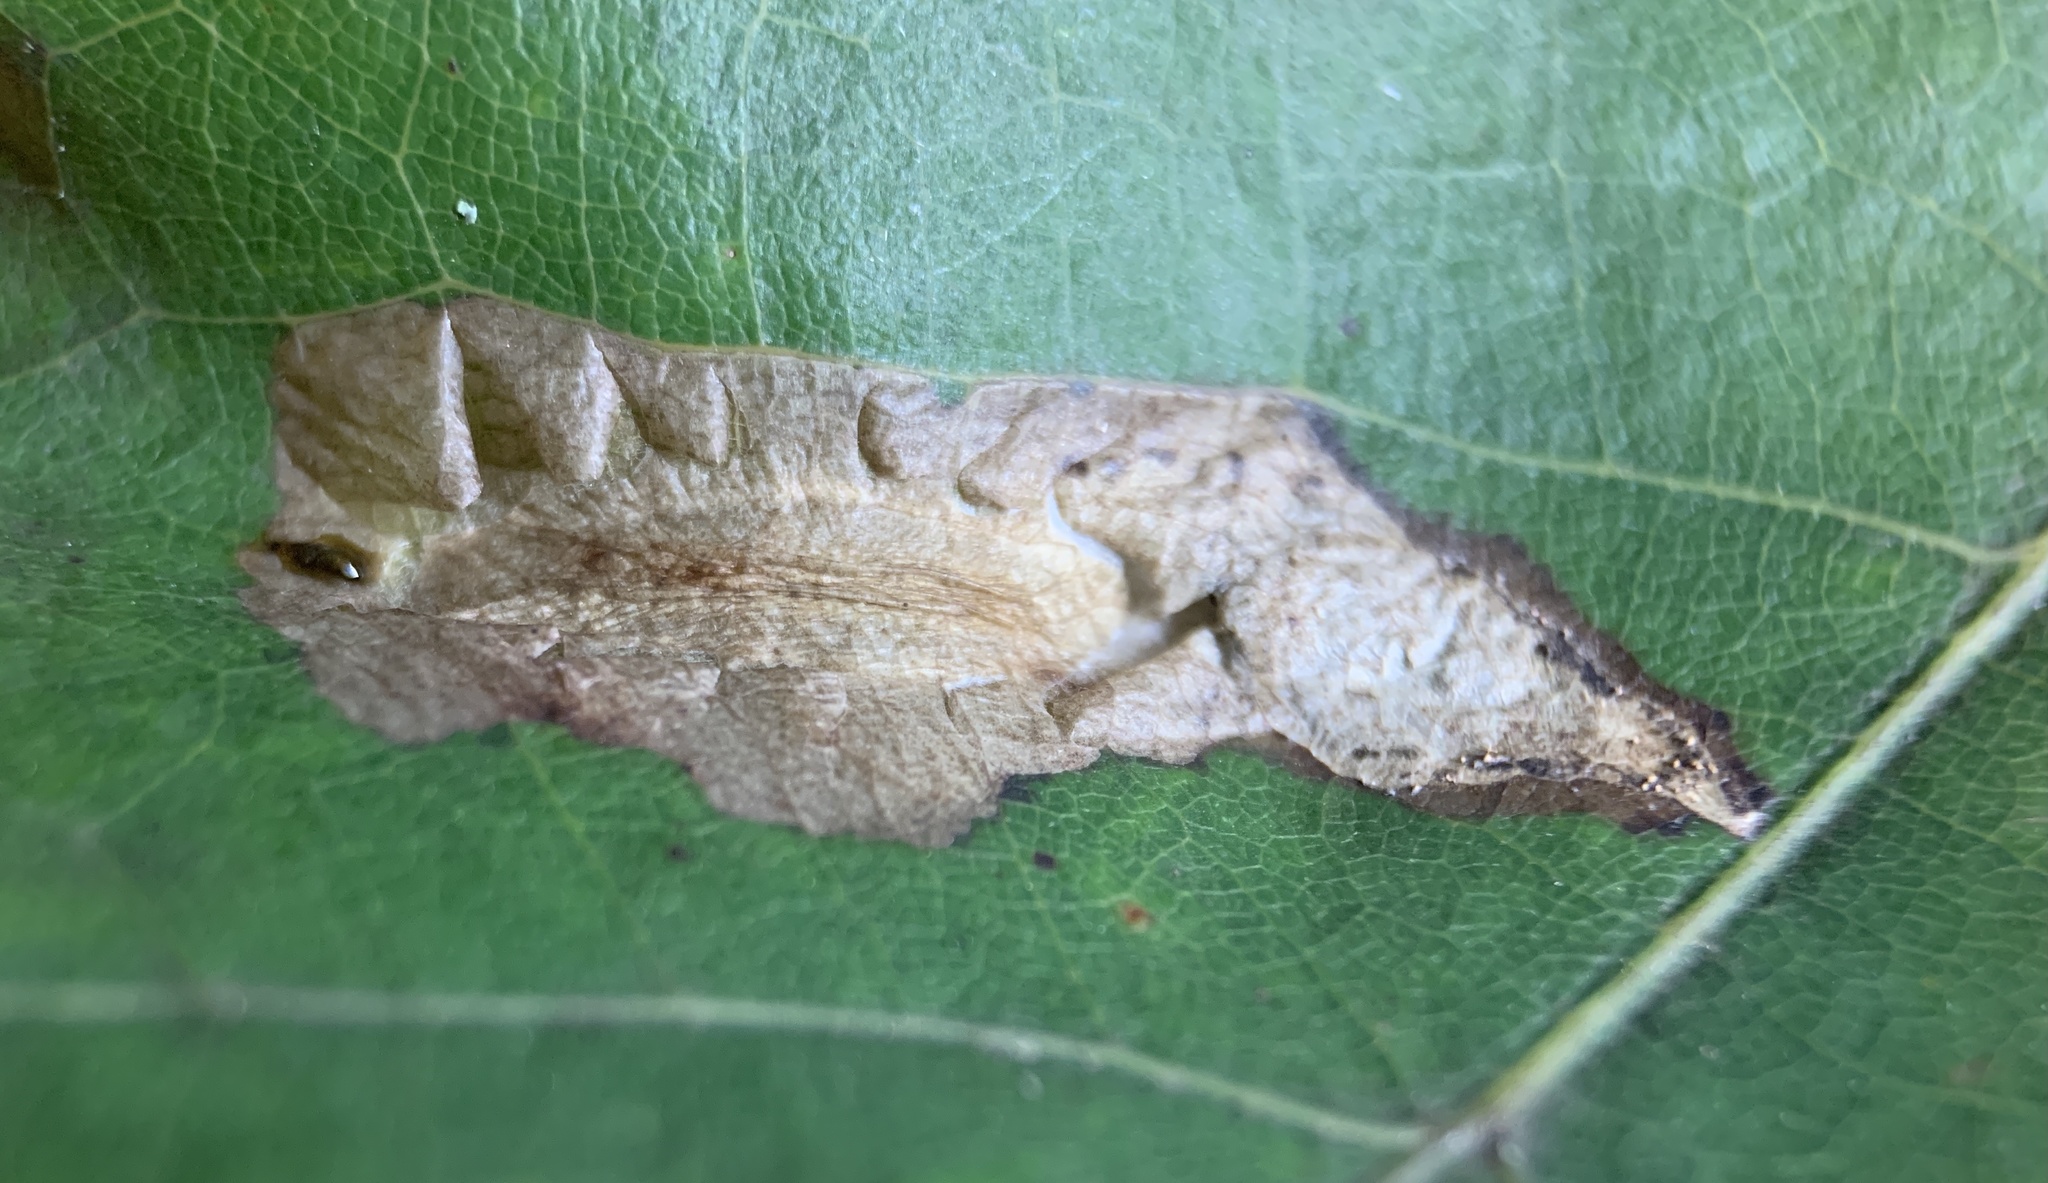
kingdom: Animalia
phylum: Arthropoda
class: Insecta
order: Lepidoptera
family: Tischeriidae
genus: Coptotriche
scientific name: Coptotriche zelleriella
